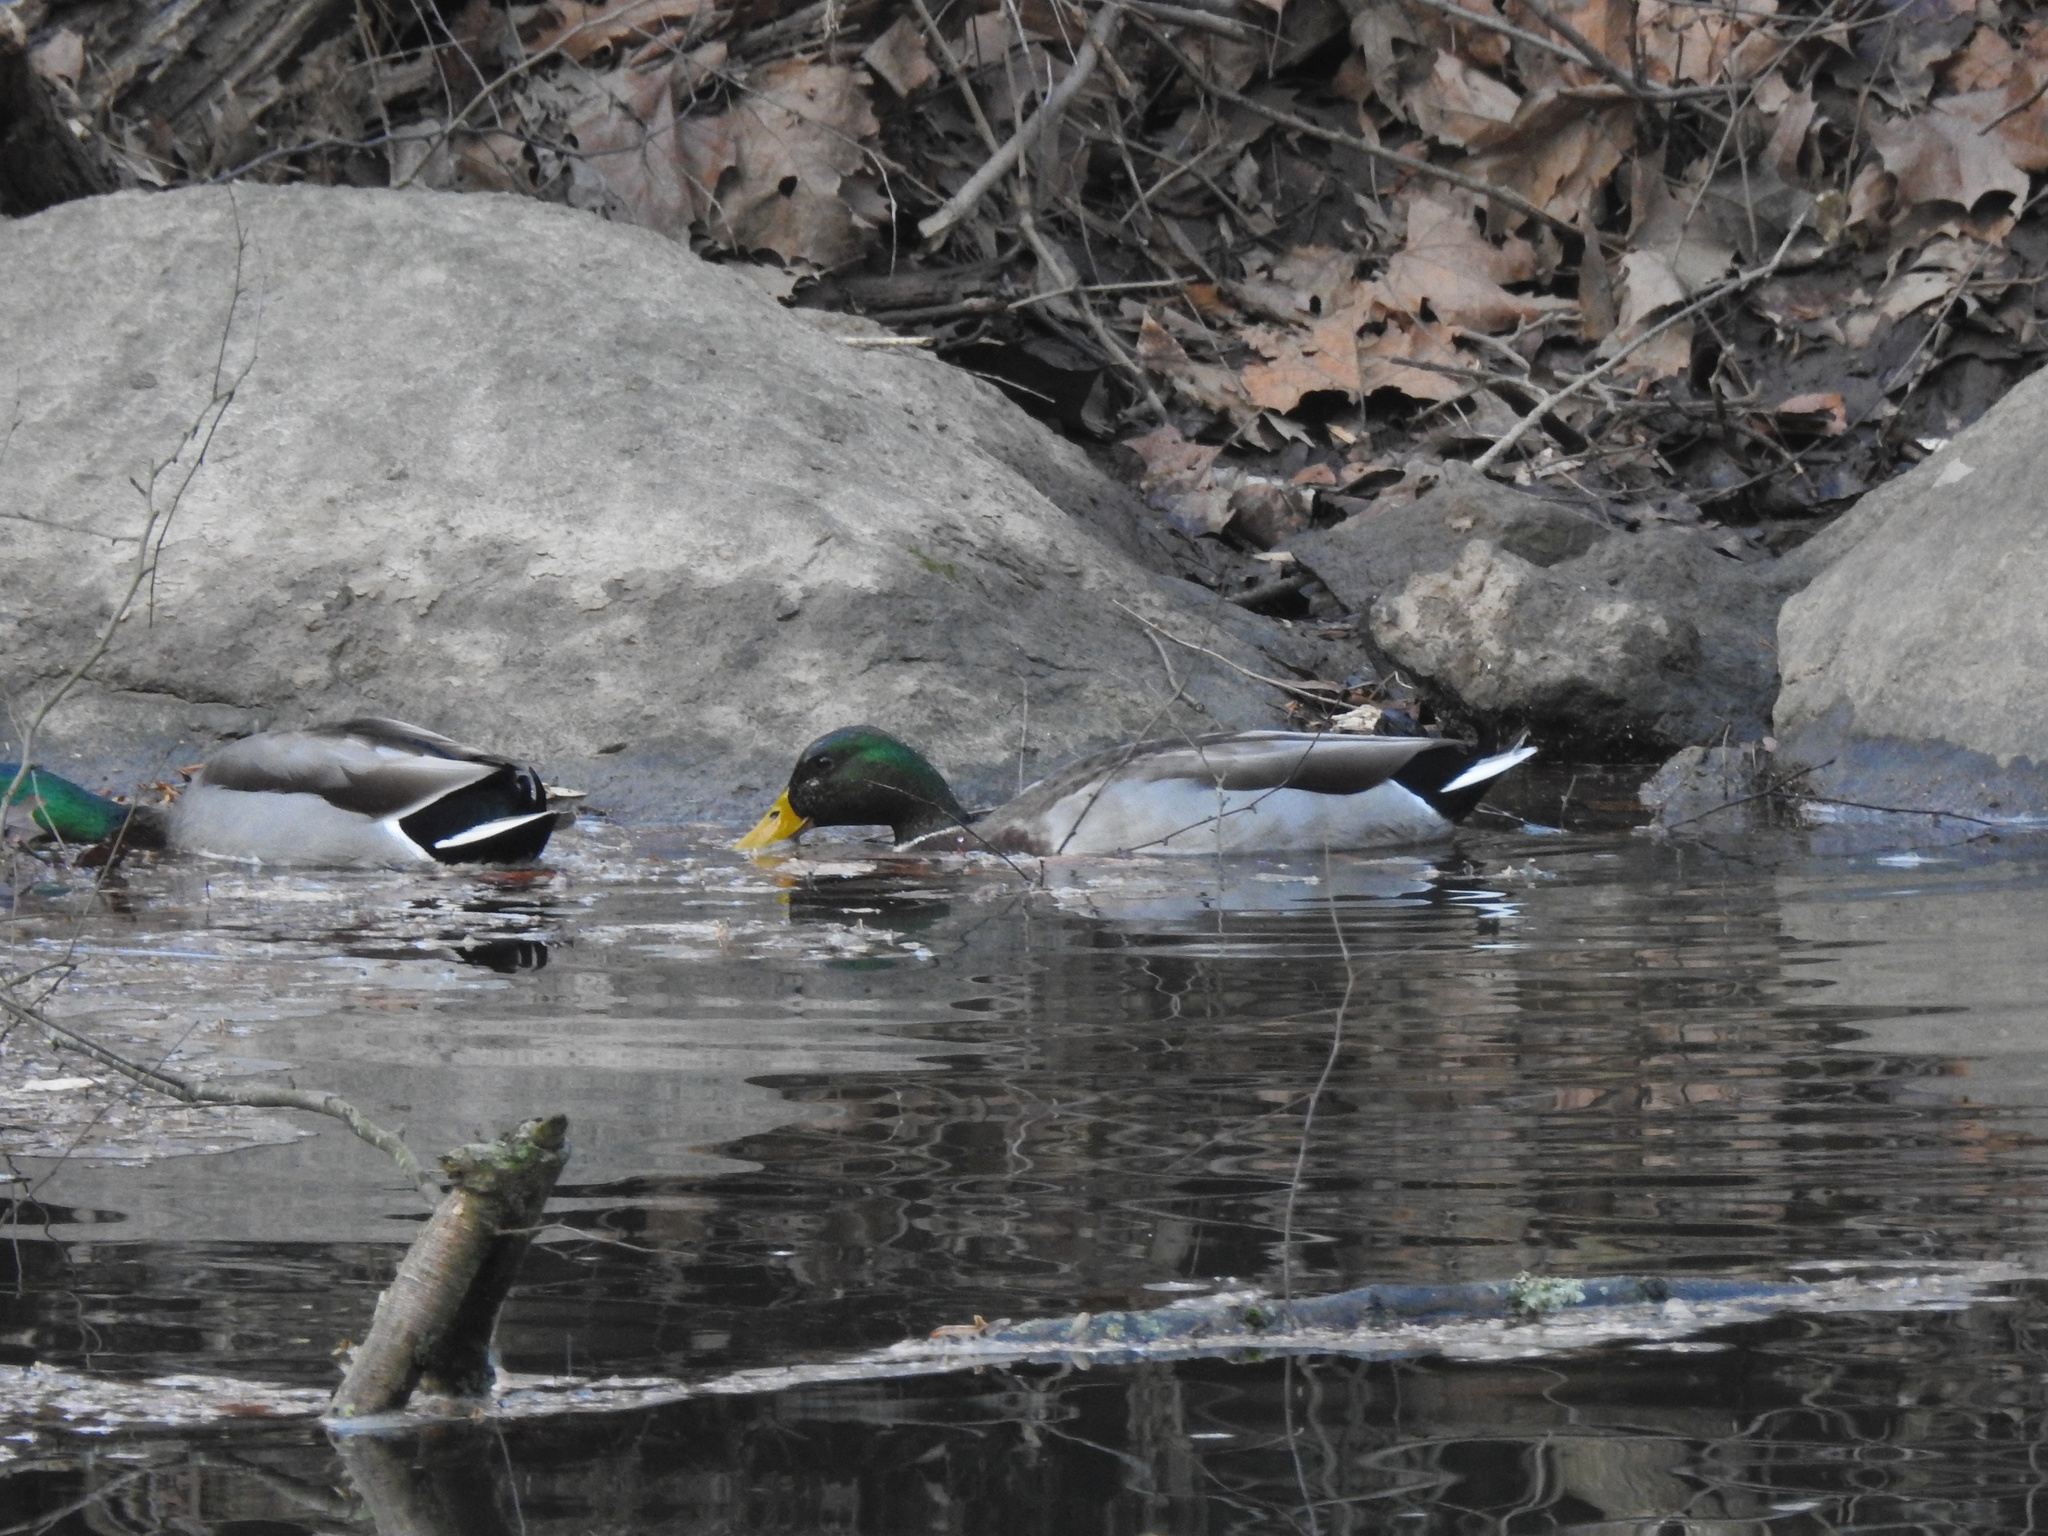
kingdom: Animalia
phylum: Chordata
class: Aves
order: Anseriformes
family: Anatidae
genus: Anas
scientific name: Anas platyrhynchos
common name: Mallard
